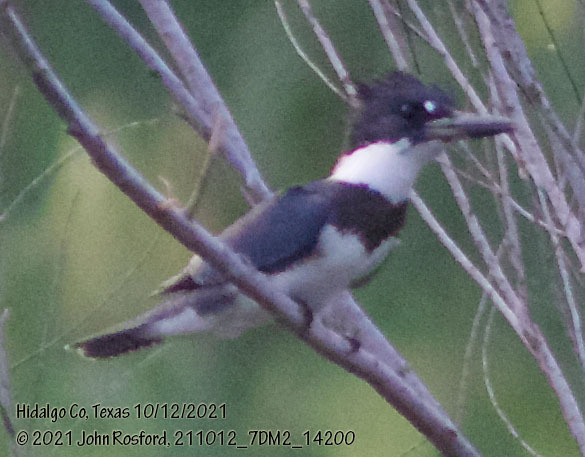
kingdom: Animalia
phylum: Chordata
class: Aves
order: Coraciiformes
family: Alcedinidae
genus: Megaceryle
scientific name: Megaceryle alcyon
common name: Belted kingfisher
